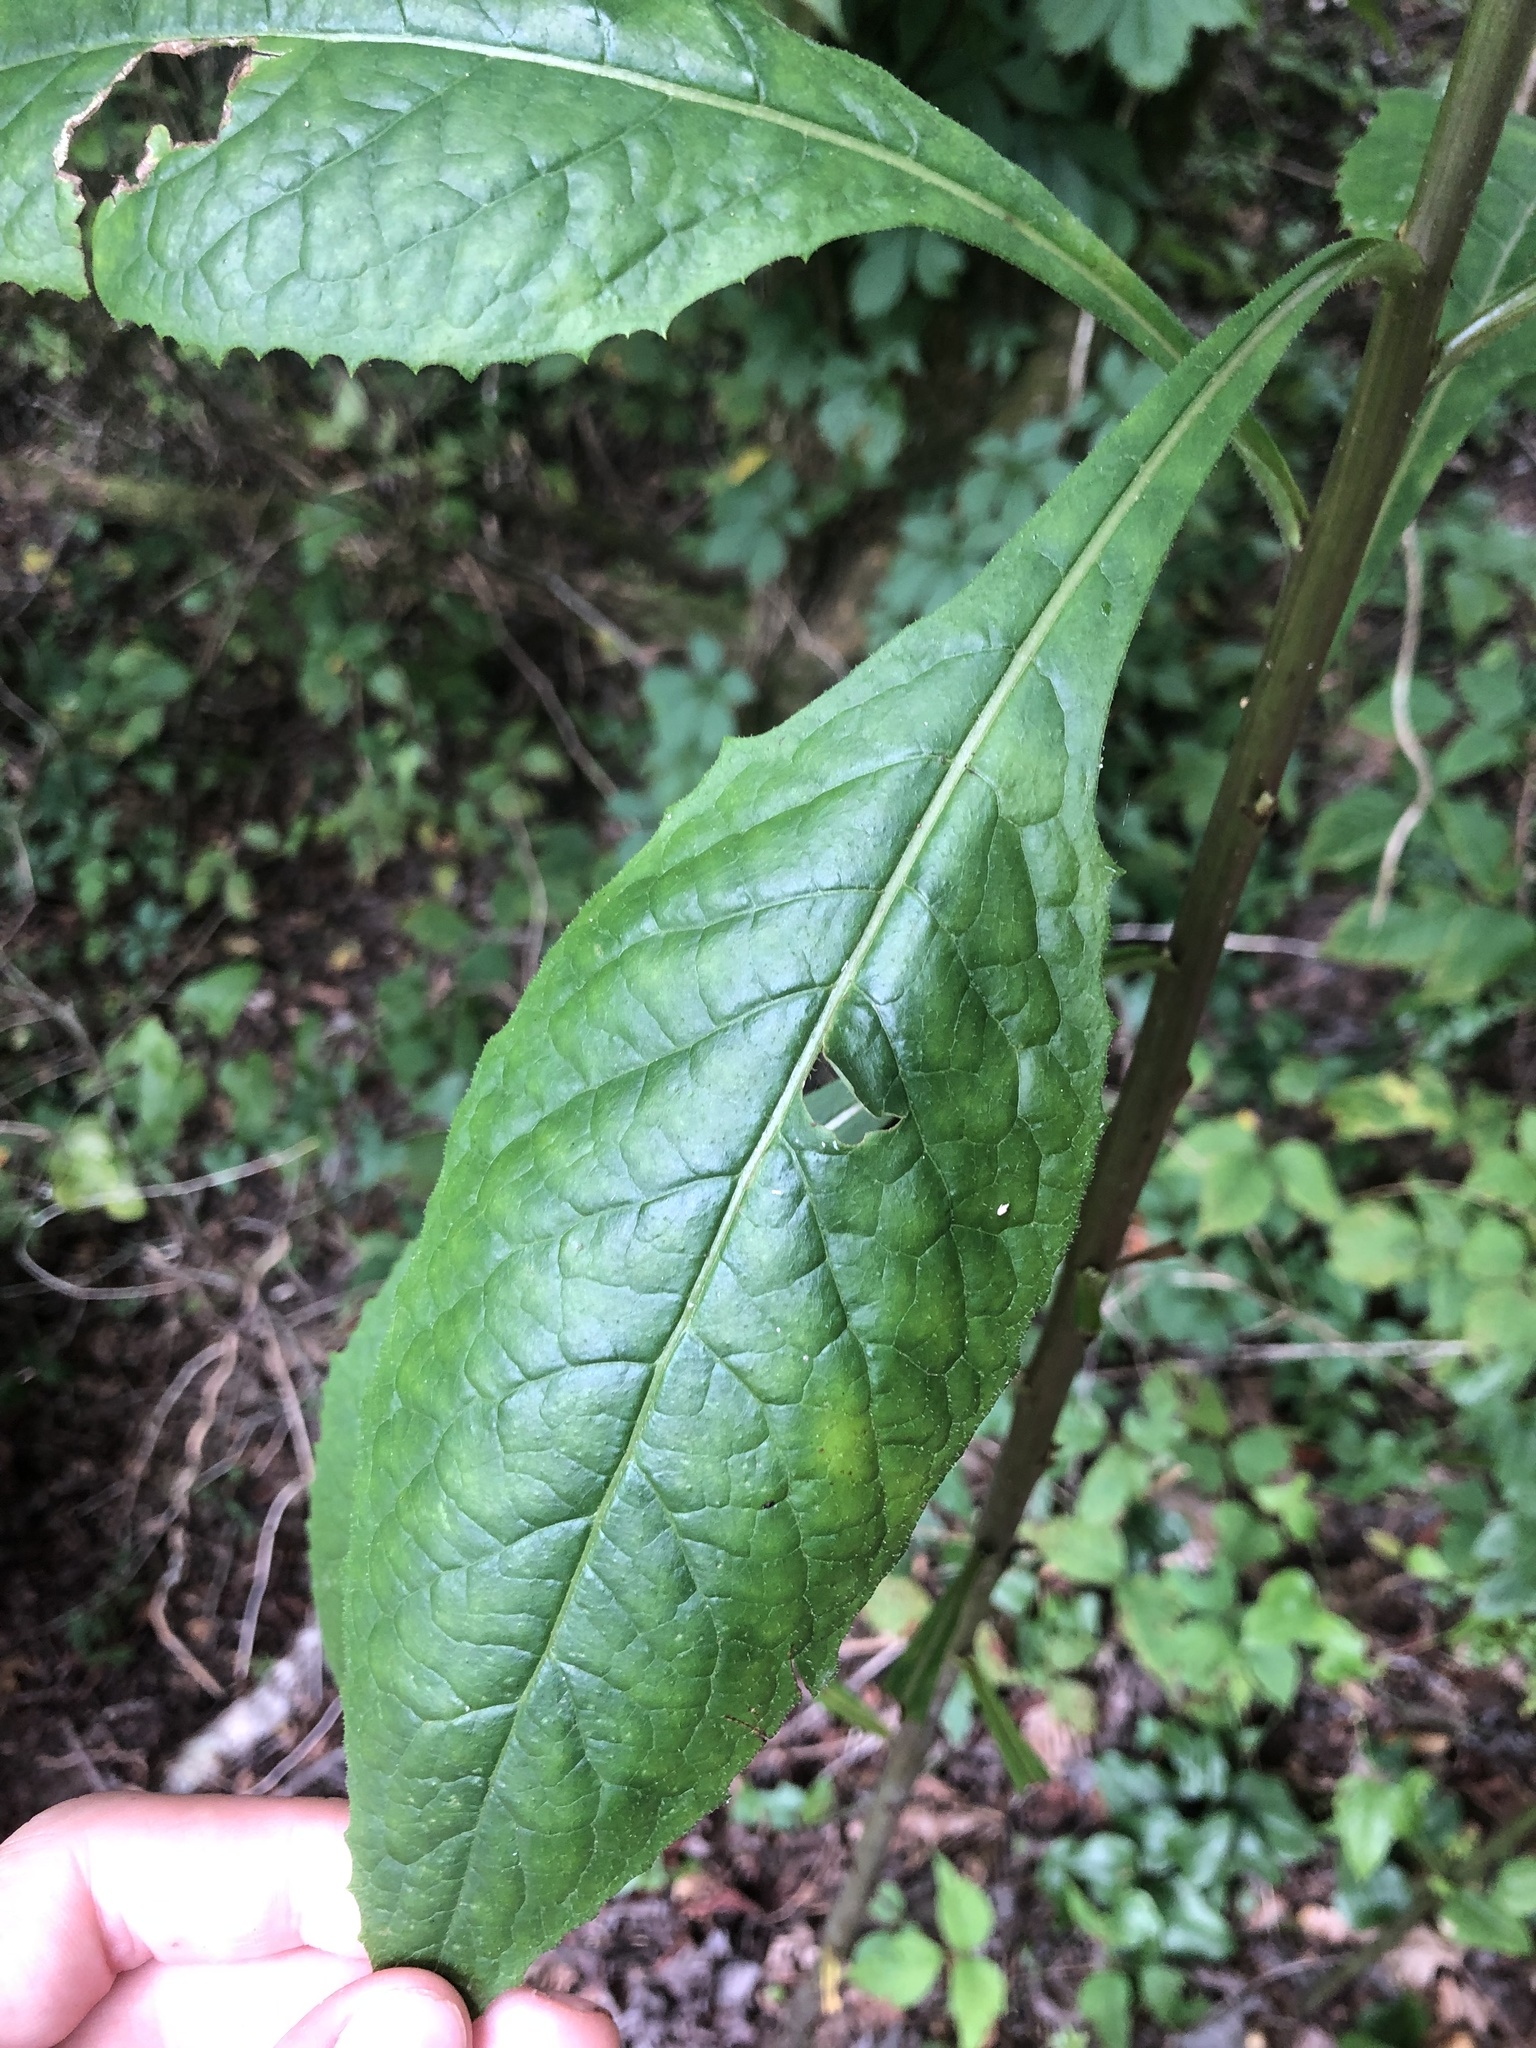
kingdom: Plantae
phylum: Tracheophyta
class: Magnoliopsida
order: Asterales
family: Asteraceae
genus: Lactuca
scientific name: Lactuca floridana
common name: Woodland lettuce
